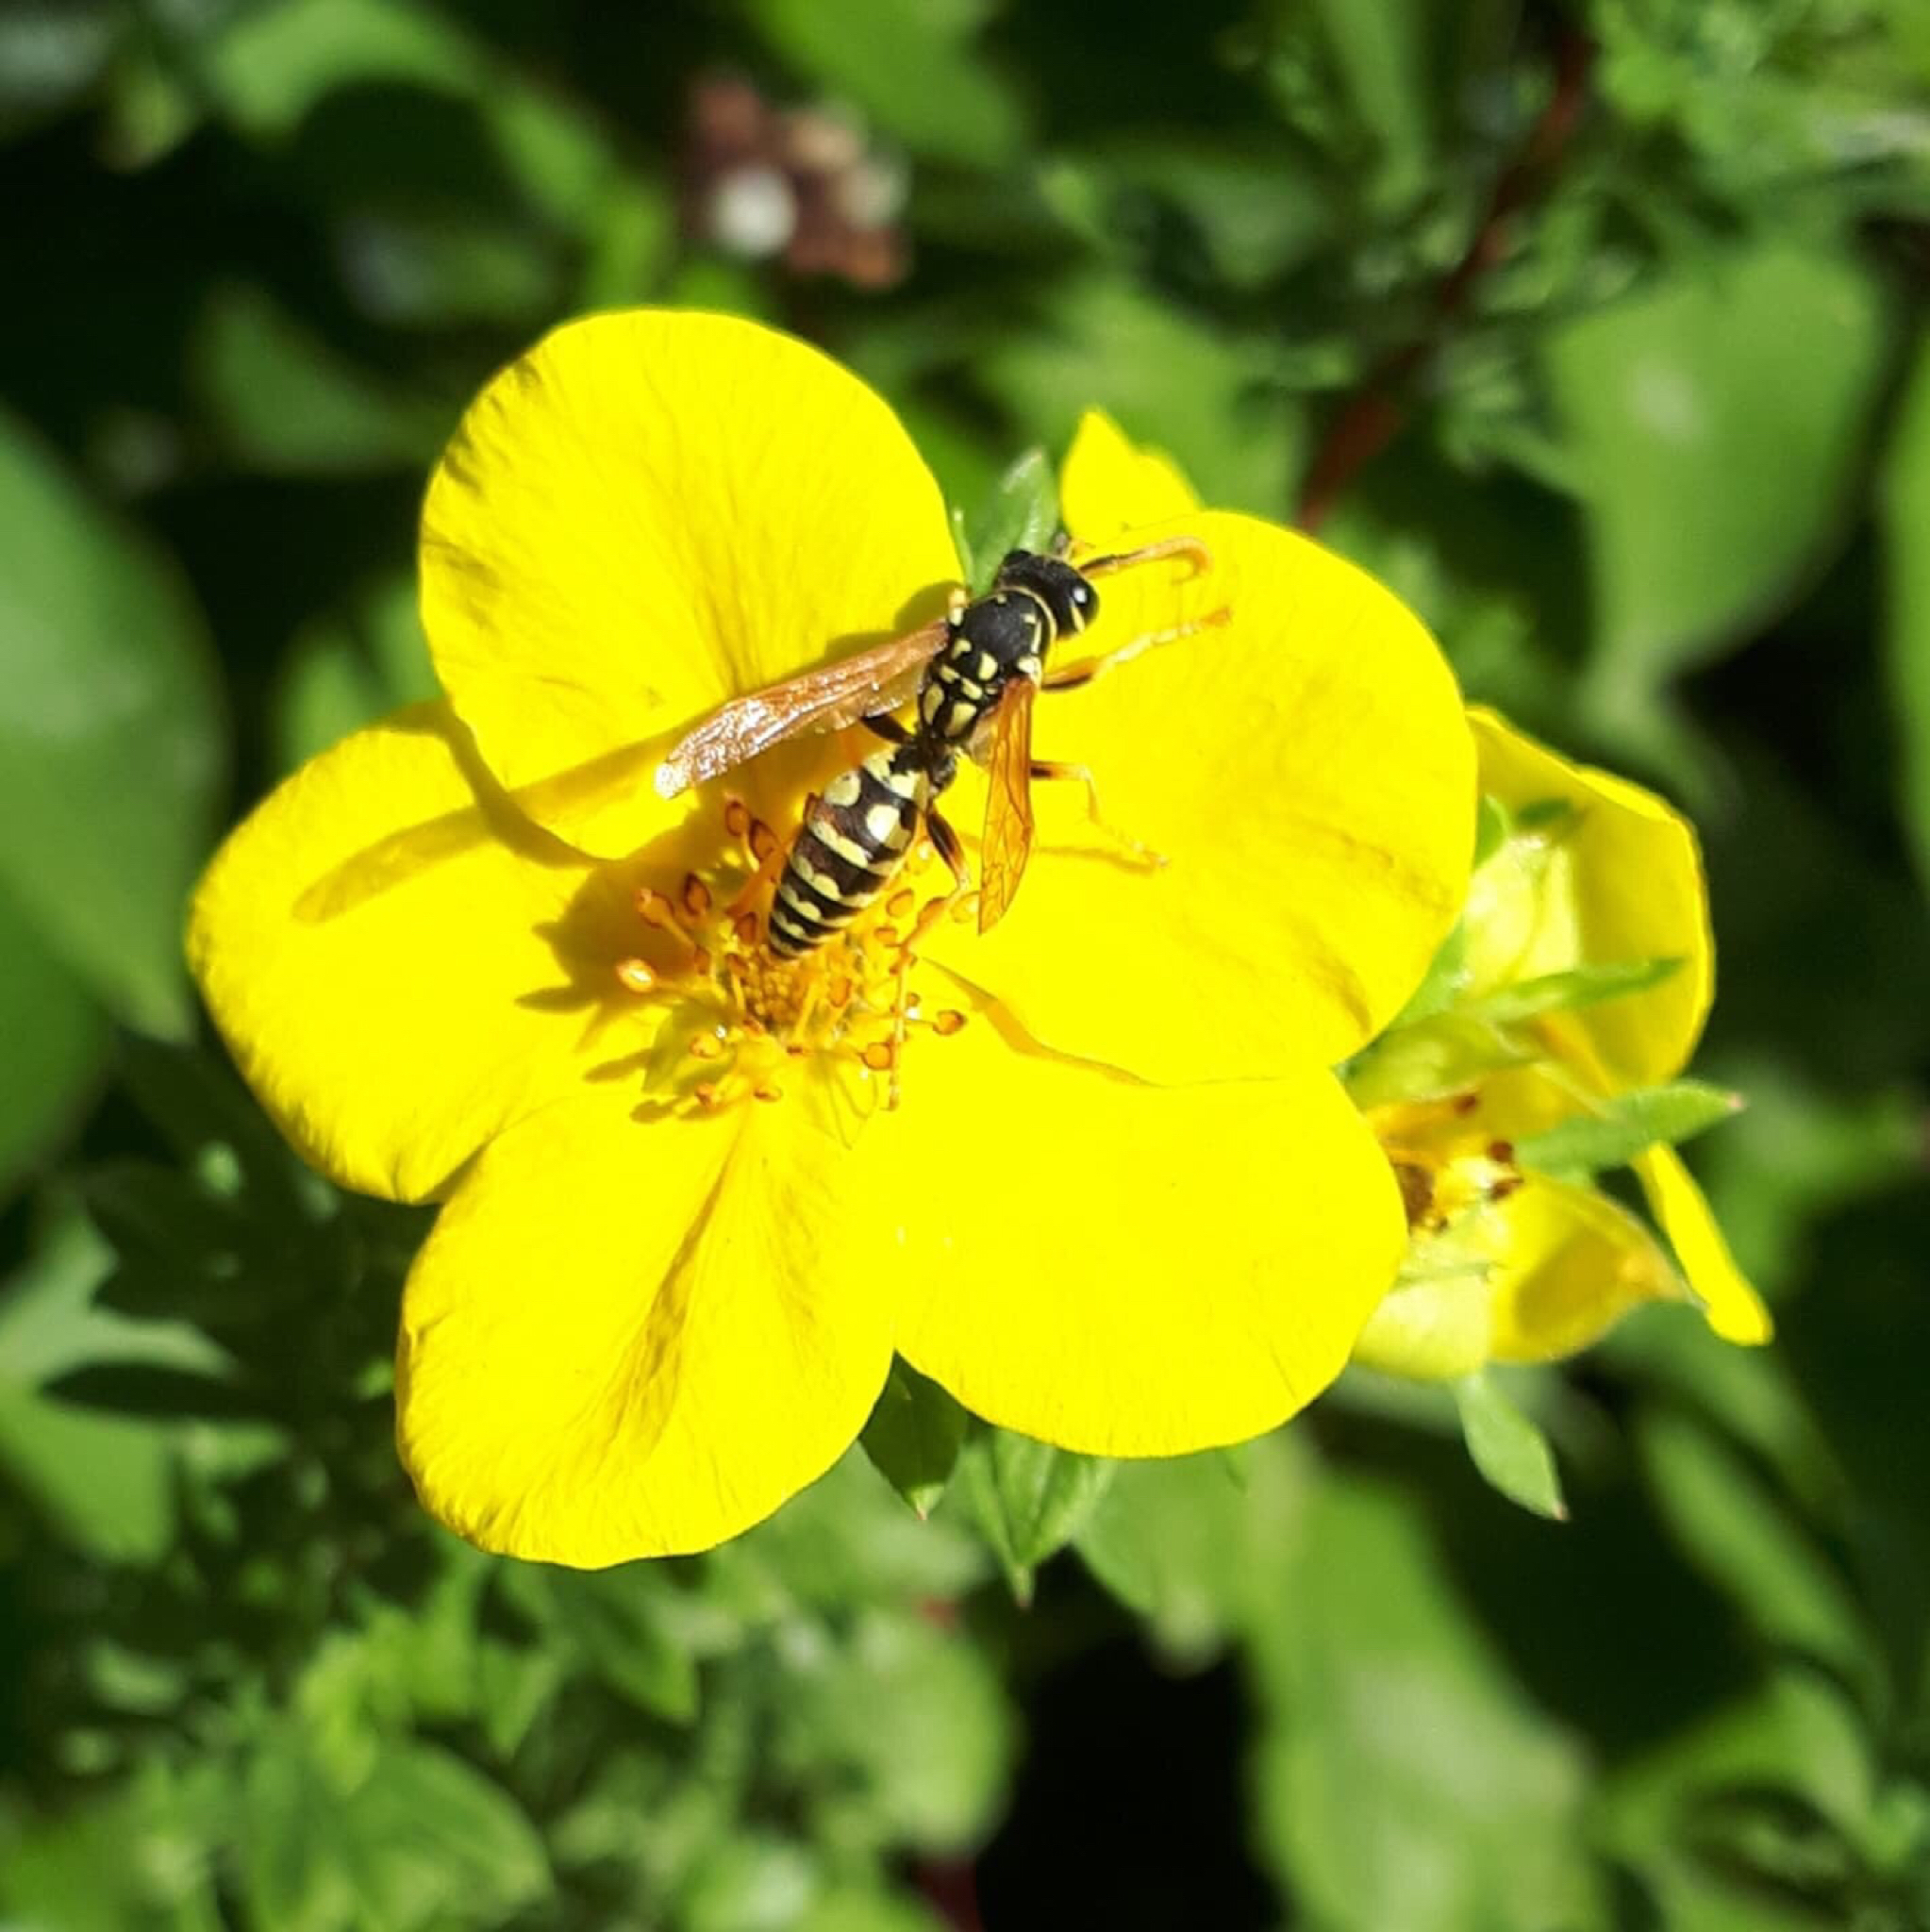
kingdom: Animalia
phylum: Arthropoda
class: Insecta
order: Hymenoptera
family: Eumenidae
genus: Polistes
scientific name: Polistes dominula
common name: Paper wasp
